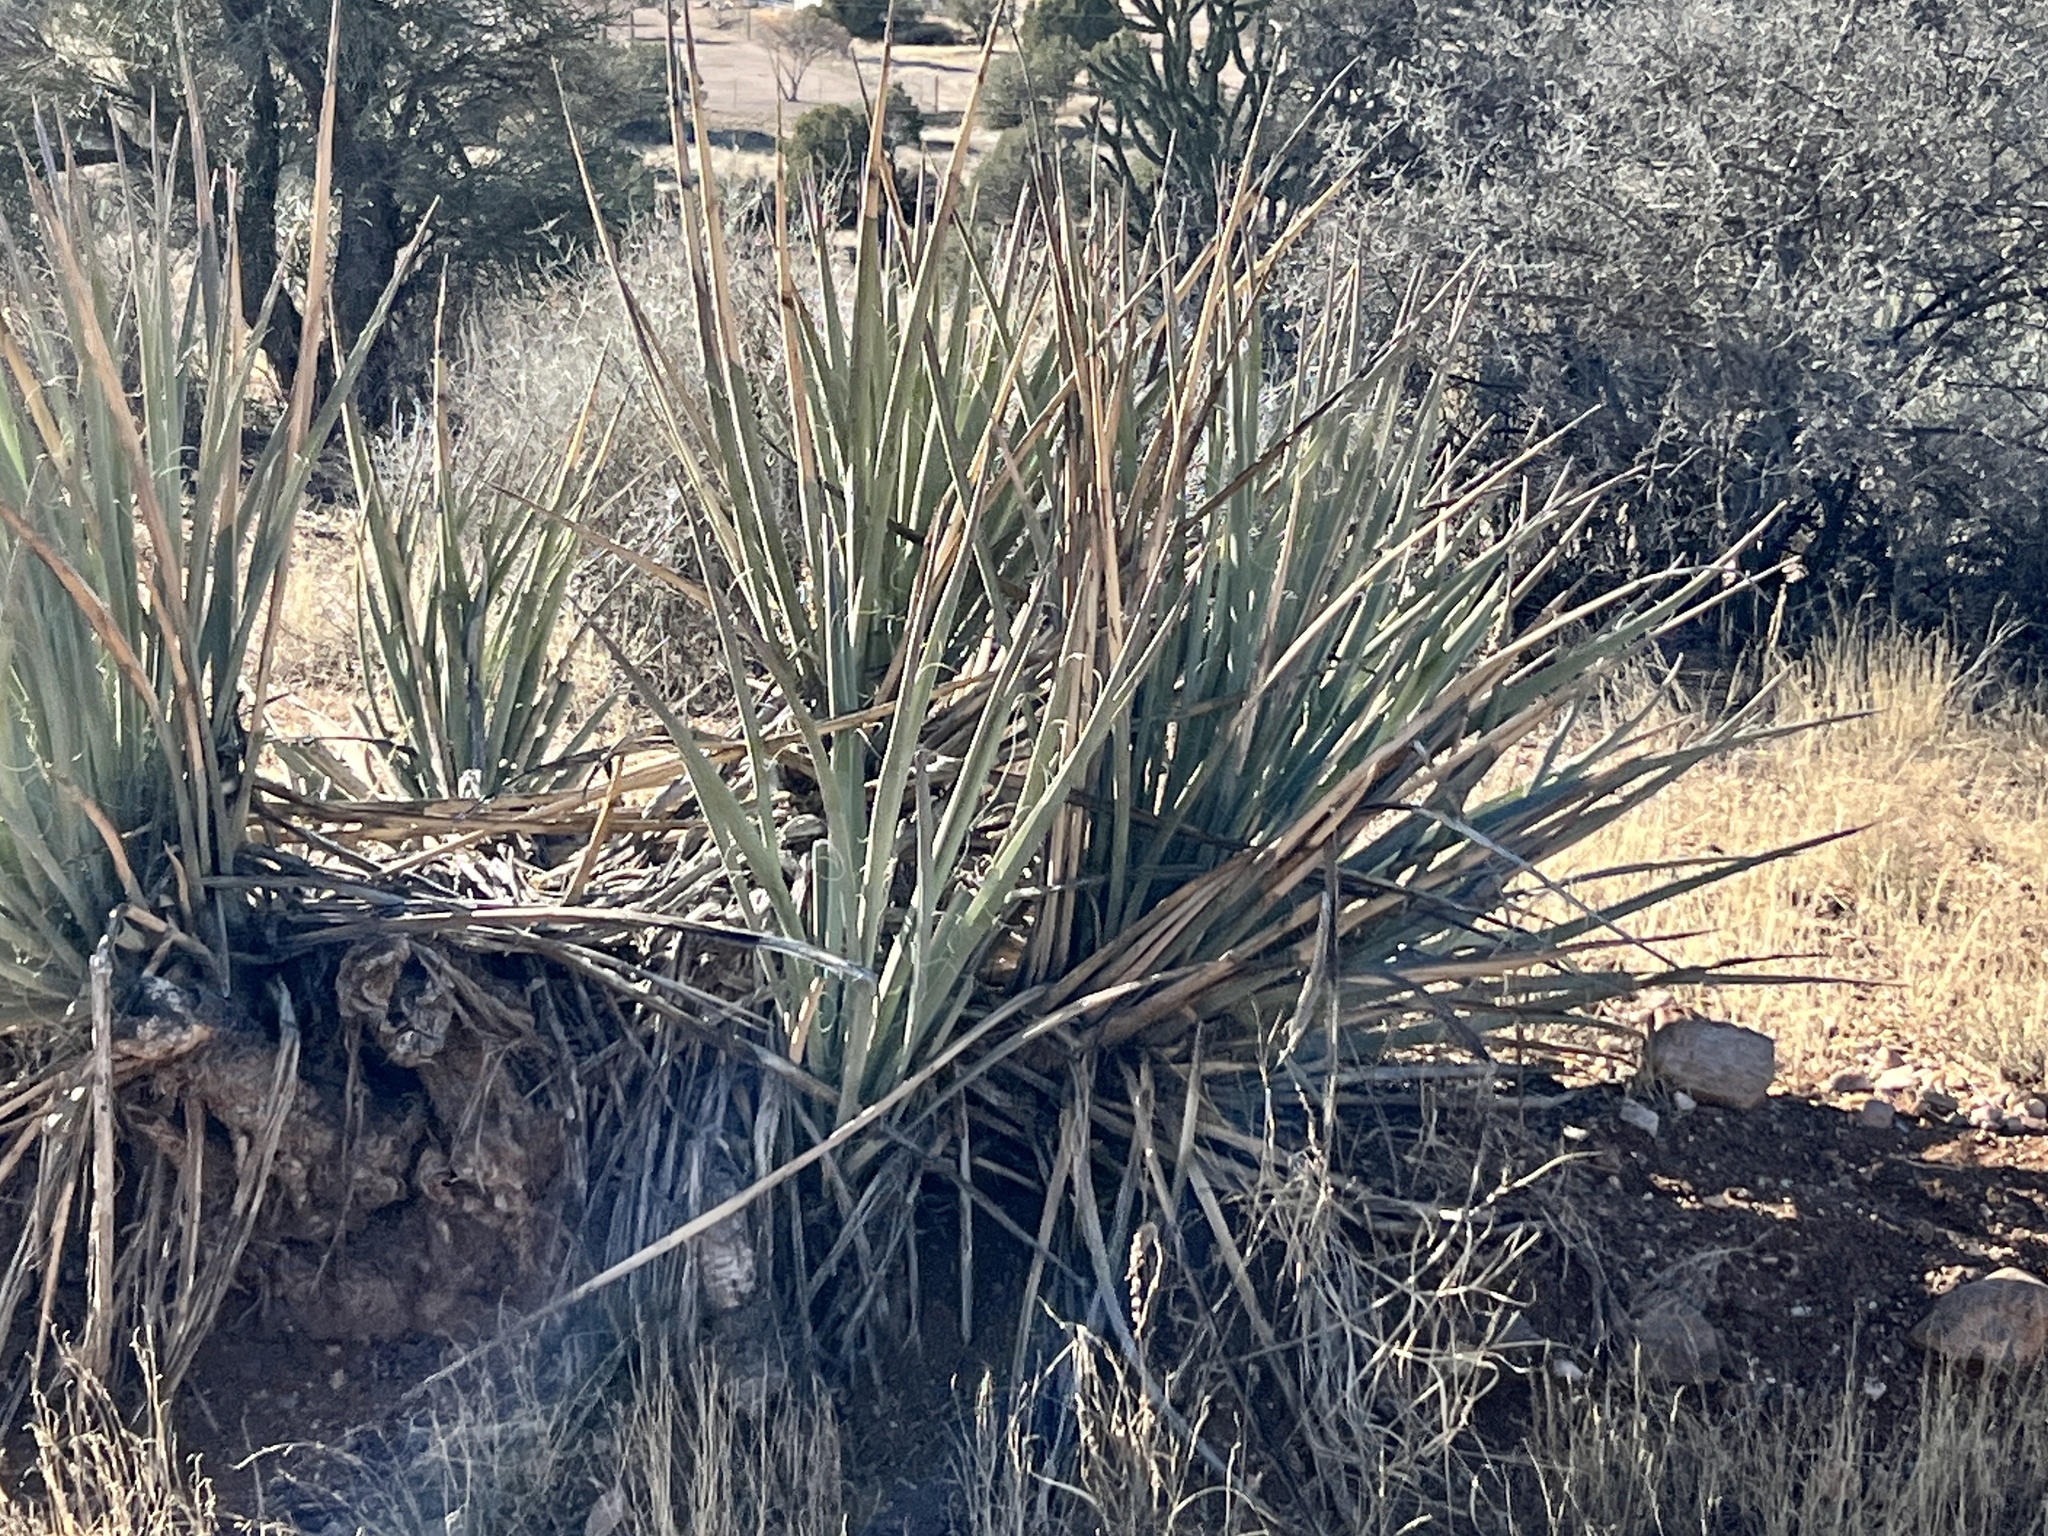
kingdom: Plantae
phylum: Tracheophyta
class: Liliopsida
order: Asparagales
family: Asparagaceae
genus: Yucca
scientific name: Yucca baccata
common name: Banana yucca
